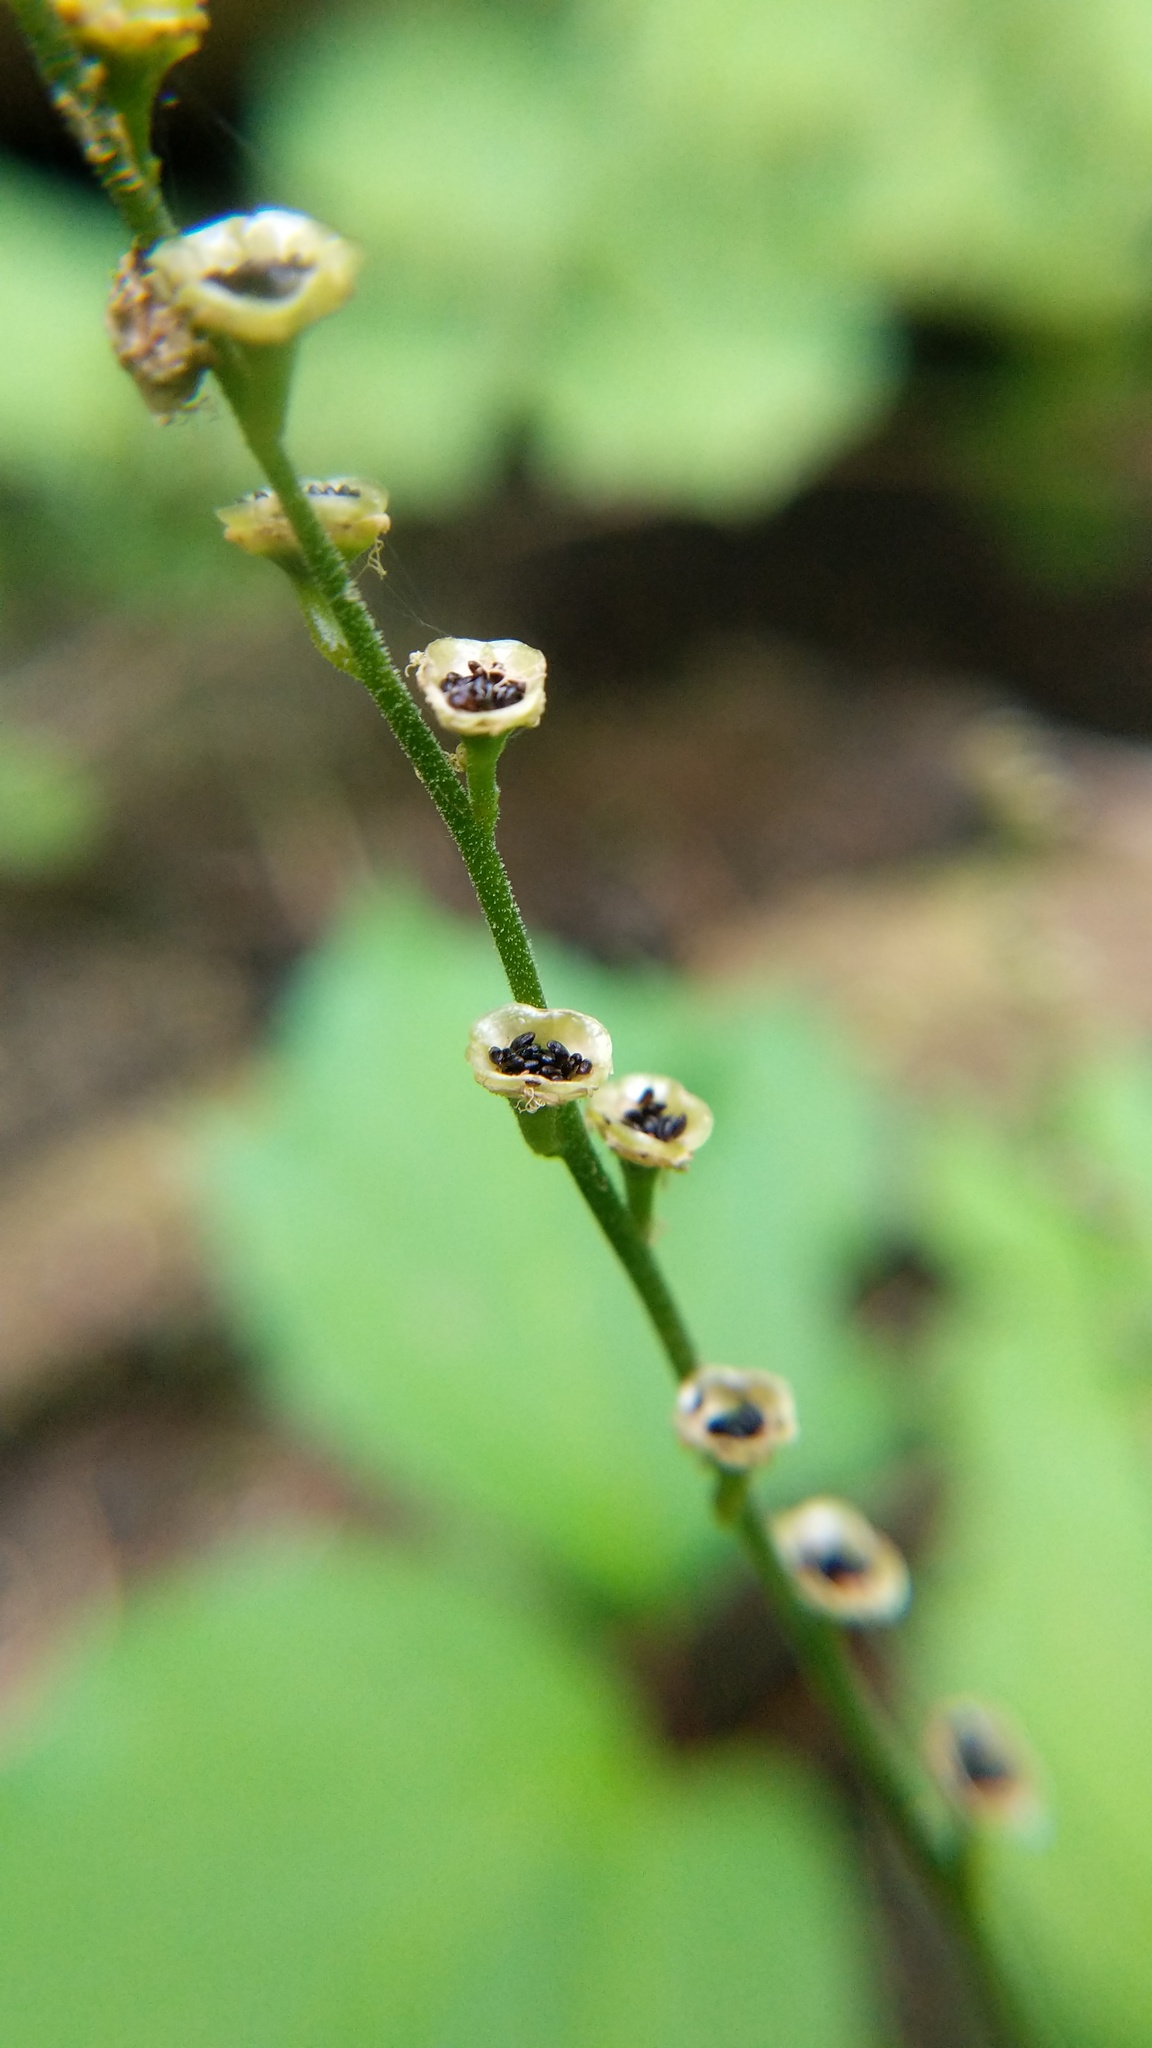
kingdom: Plantae
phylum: Tracheophyta
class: Magnoliopsida
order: Saxifragales
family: Saxifragaceae
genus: Pectiantia
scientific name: Pectiantia pentandra
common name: Alpine bishop's-cap
